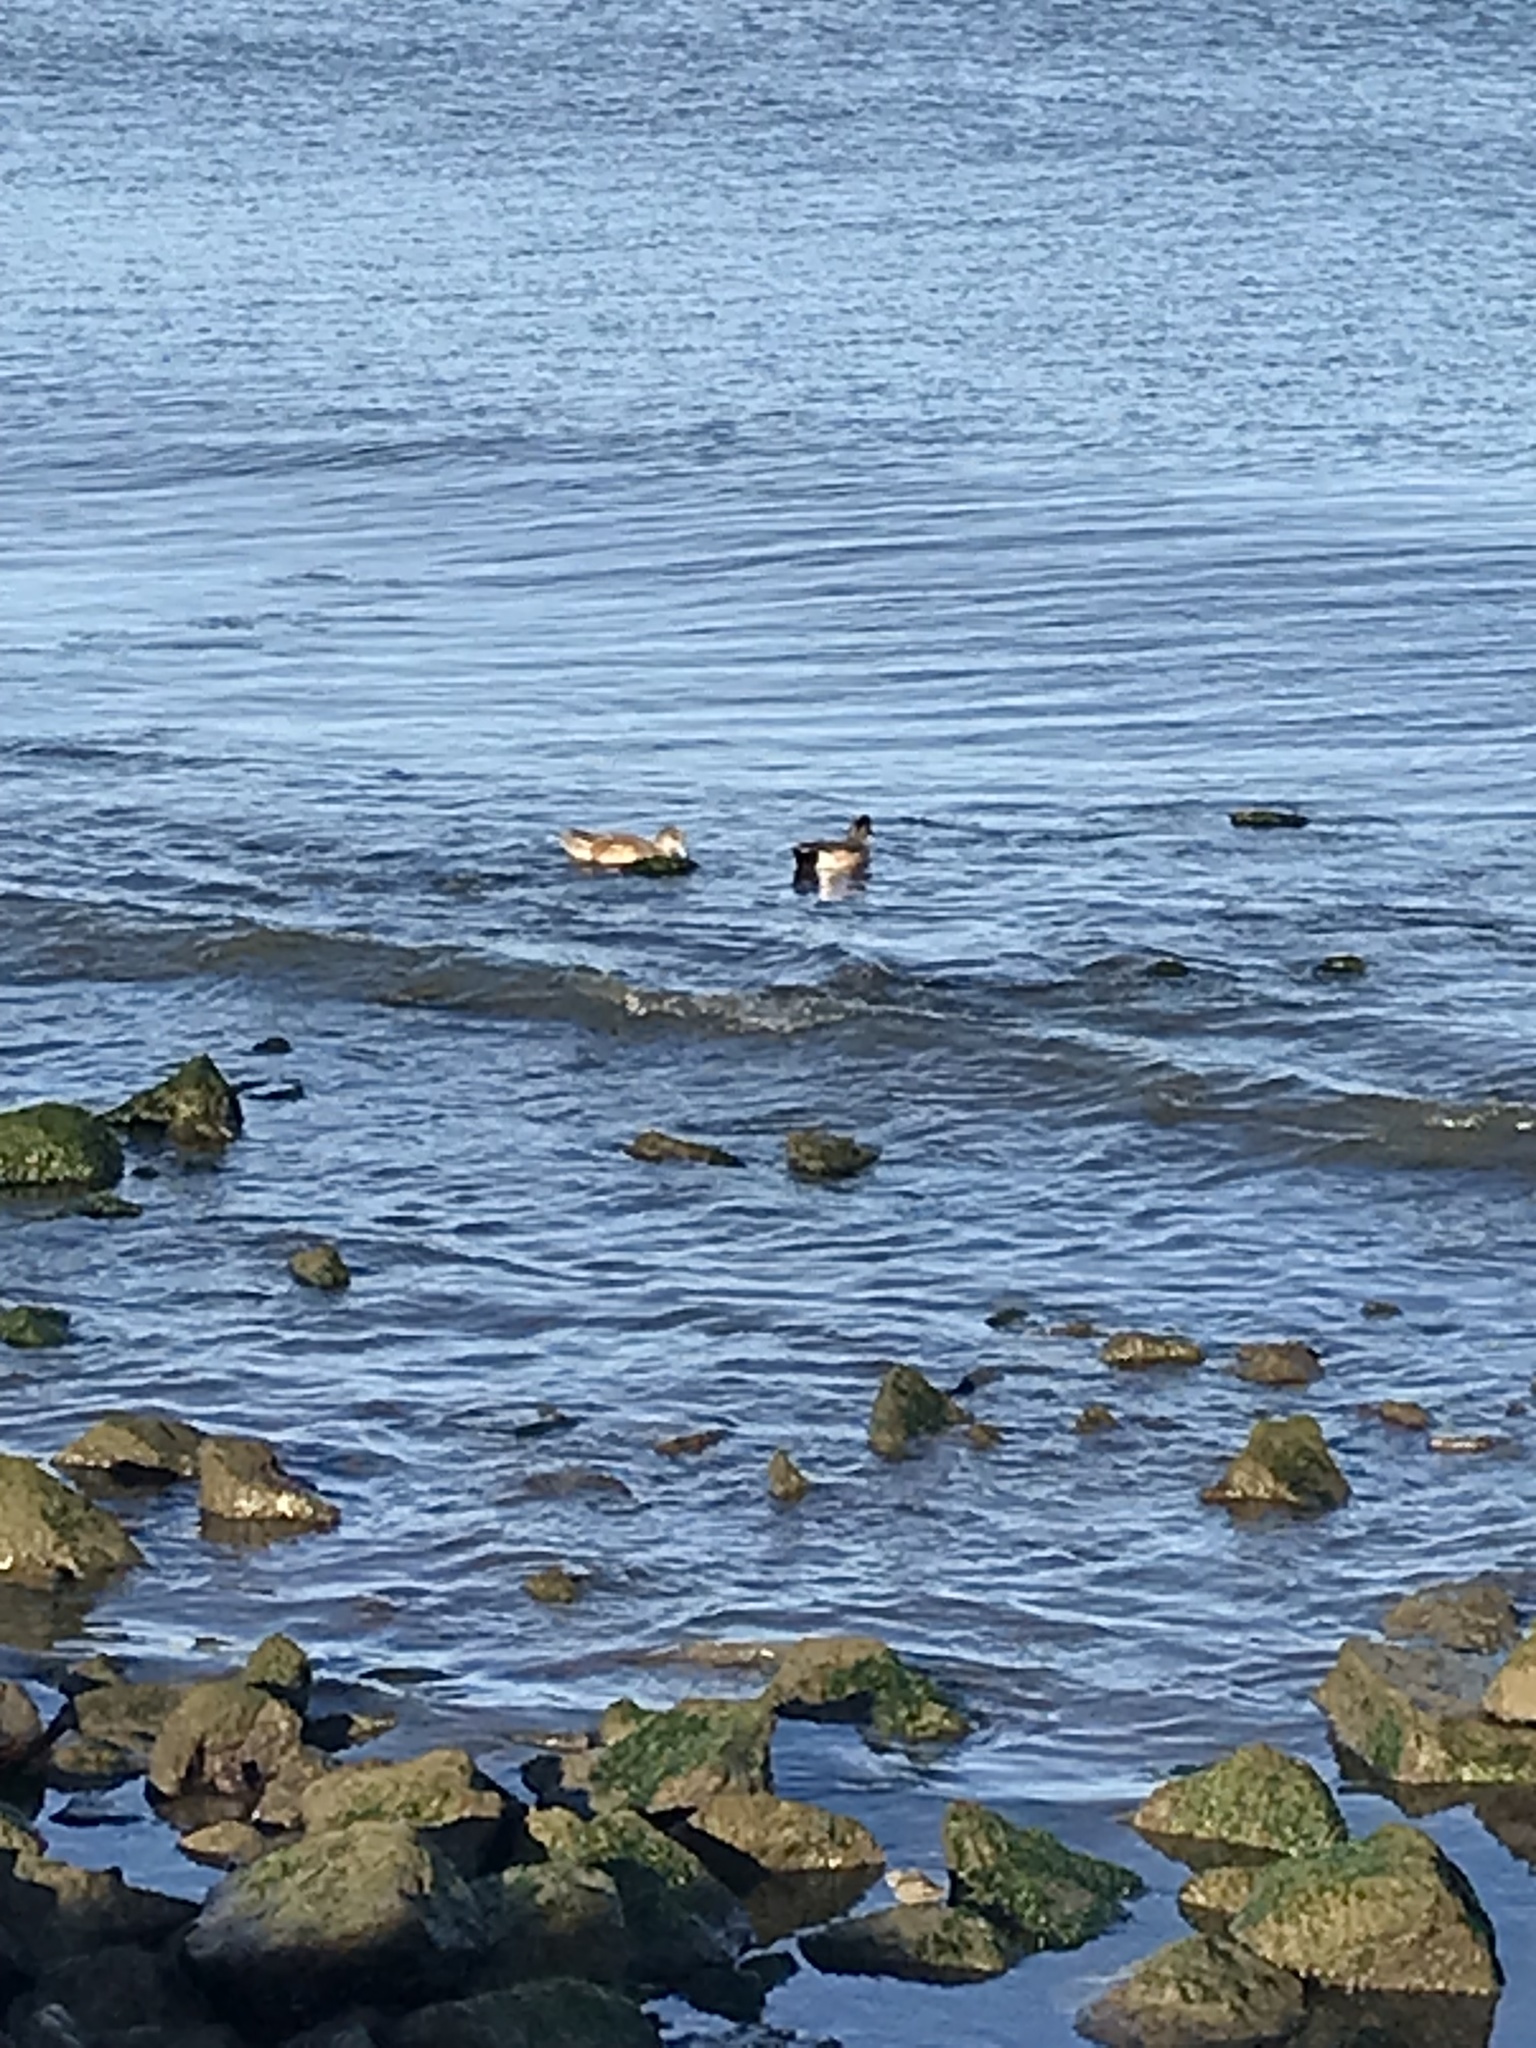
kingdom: Animalia
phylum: Chordata
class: Aves
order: Anseriformes
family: Anatidae
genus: Mareca
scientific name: Mareca americana
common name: American wigeon
